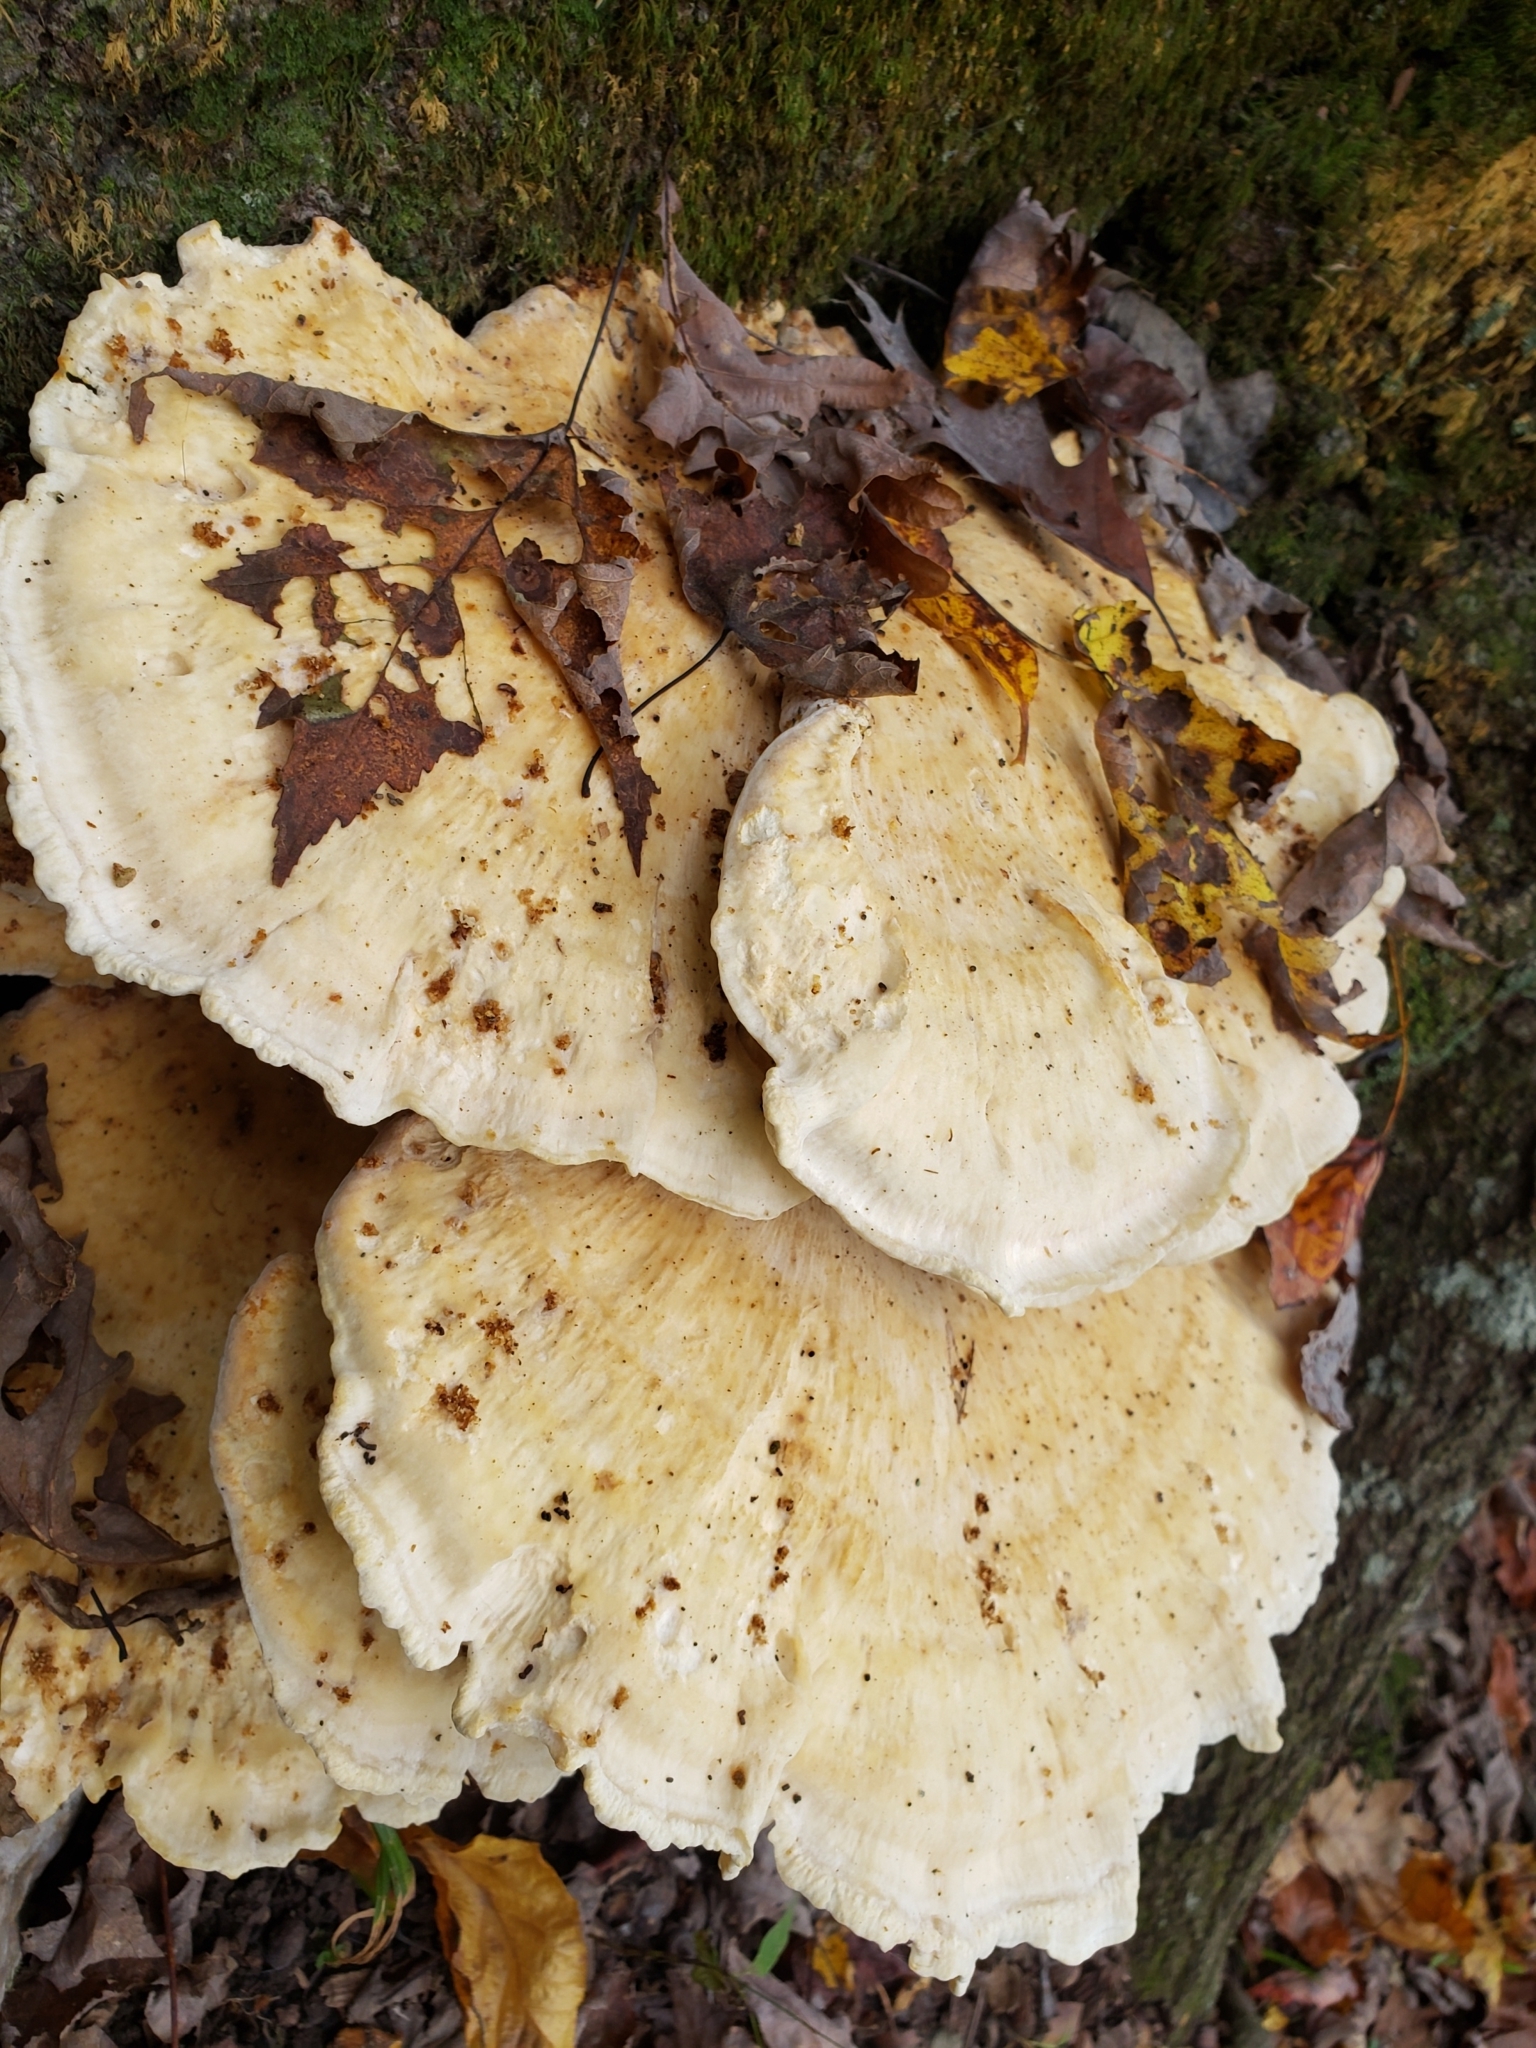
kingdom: Fungi
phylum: Basidiomycota
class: Agaricomycetes
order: Russulales
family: Bondarzewiaceae
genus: Bondarzewia
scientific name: Bondarzewia berkeleyi
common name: Berkeley's polypore
